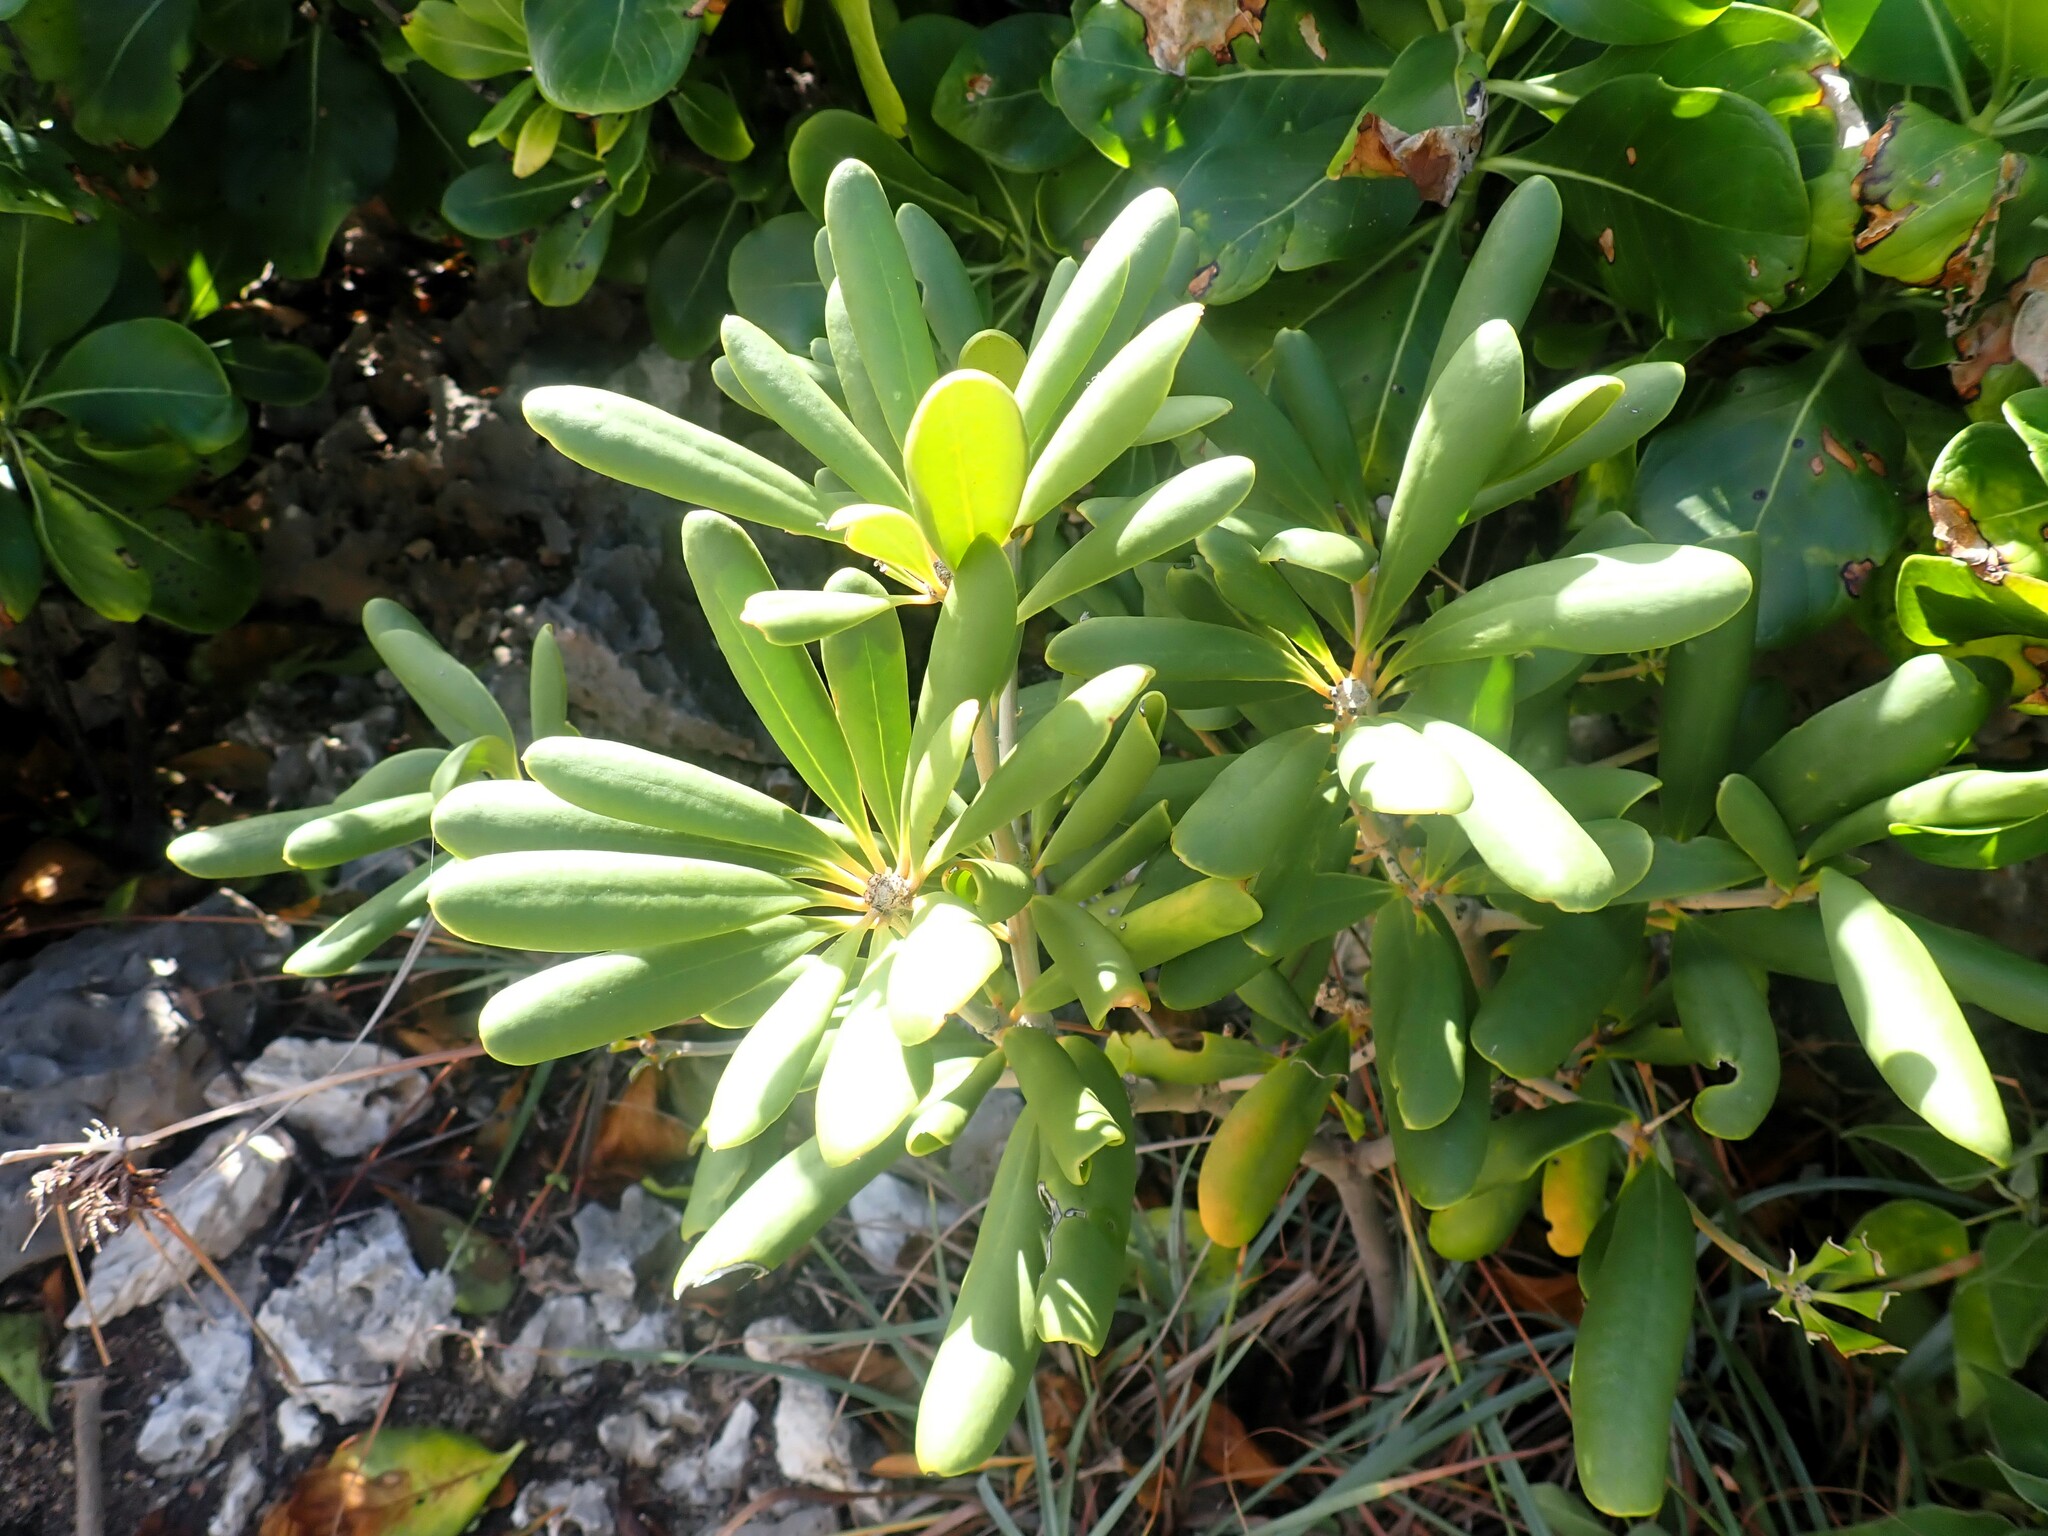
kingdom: Plantae
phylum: Tracheophyta
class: Magnoliopsida
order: Ericales
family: Primulaceae
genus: Jacquinia
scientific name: Jacquinia arborea
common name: Barceletwood
